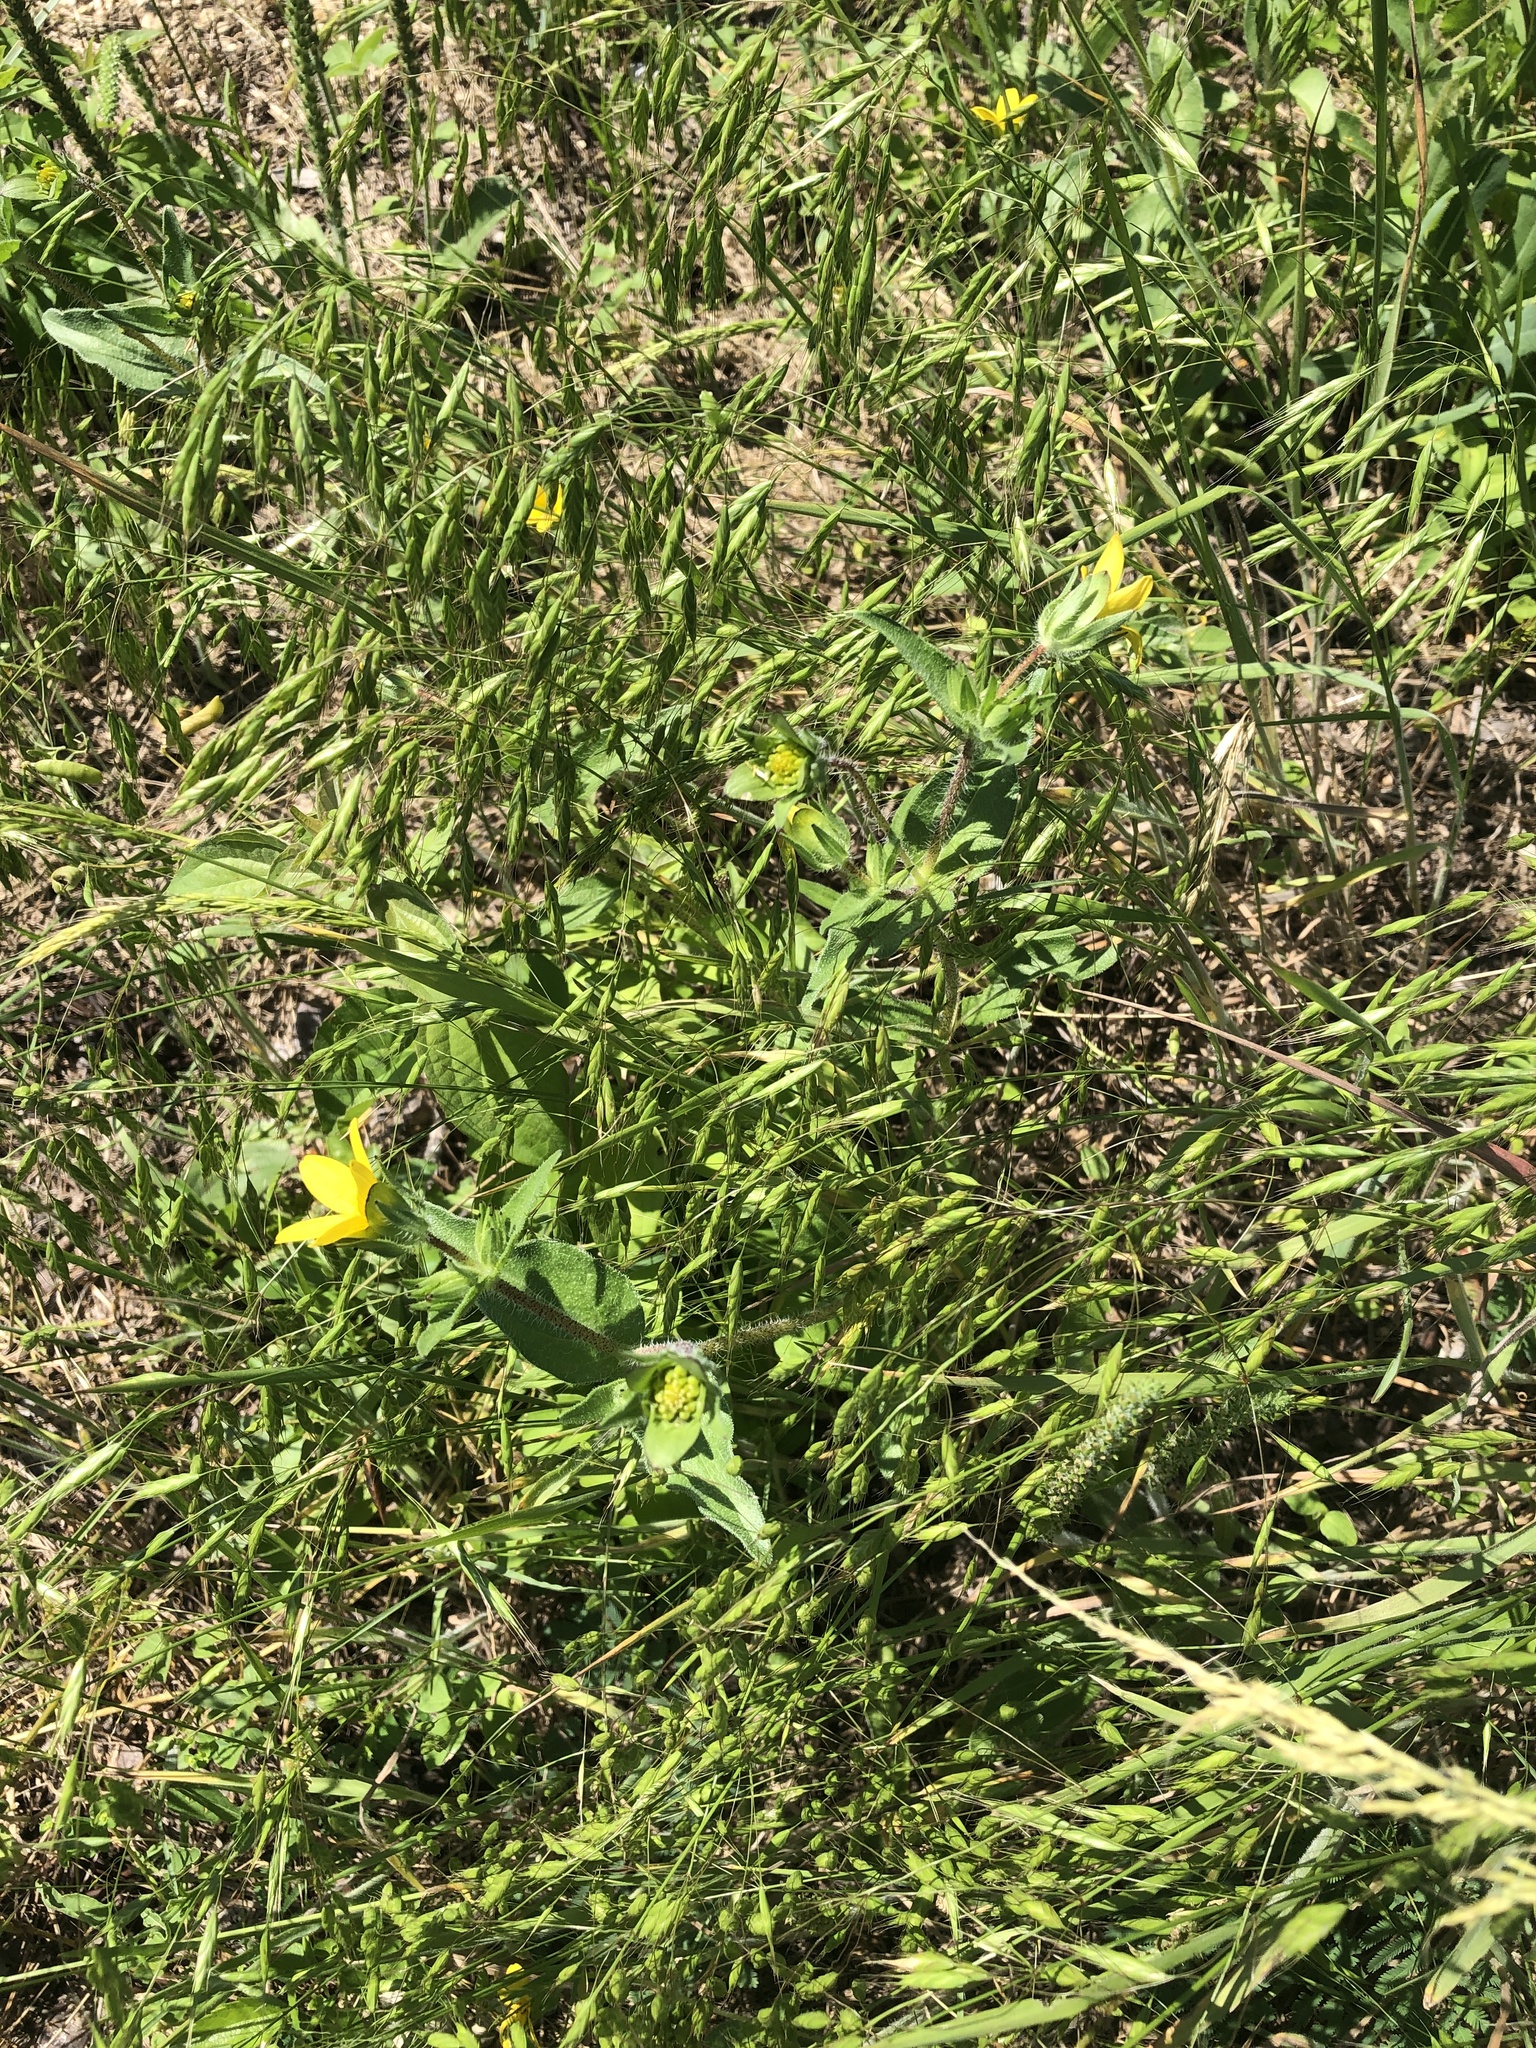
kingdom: Plantae
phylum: Tracheophyta
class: Magnoliopsida
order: Asterales
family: Asteraceae
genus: Lindheimera
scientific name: Lindheimera texana
